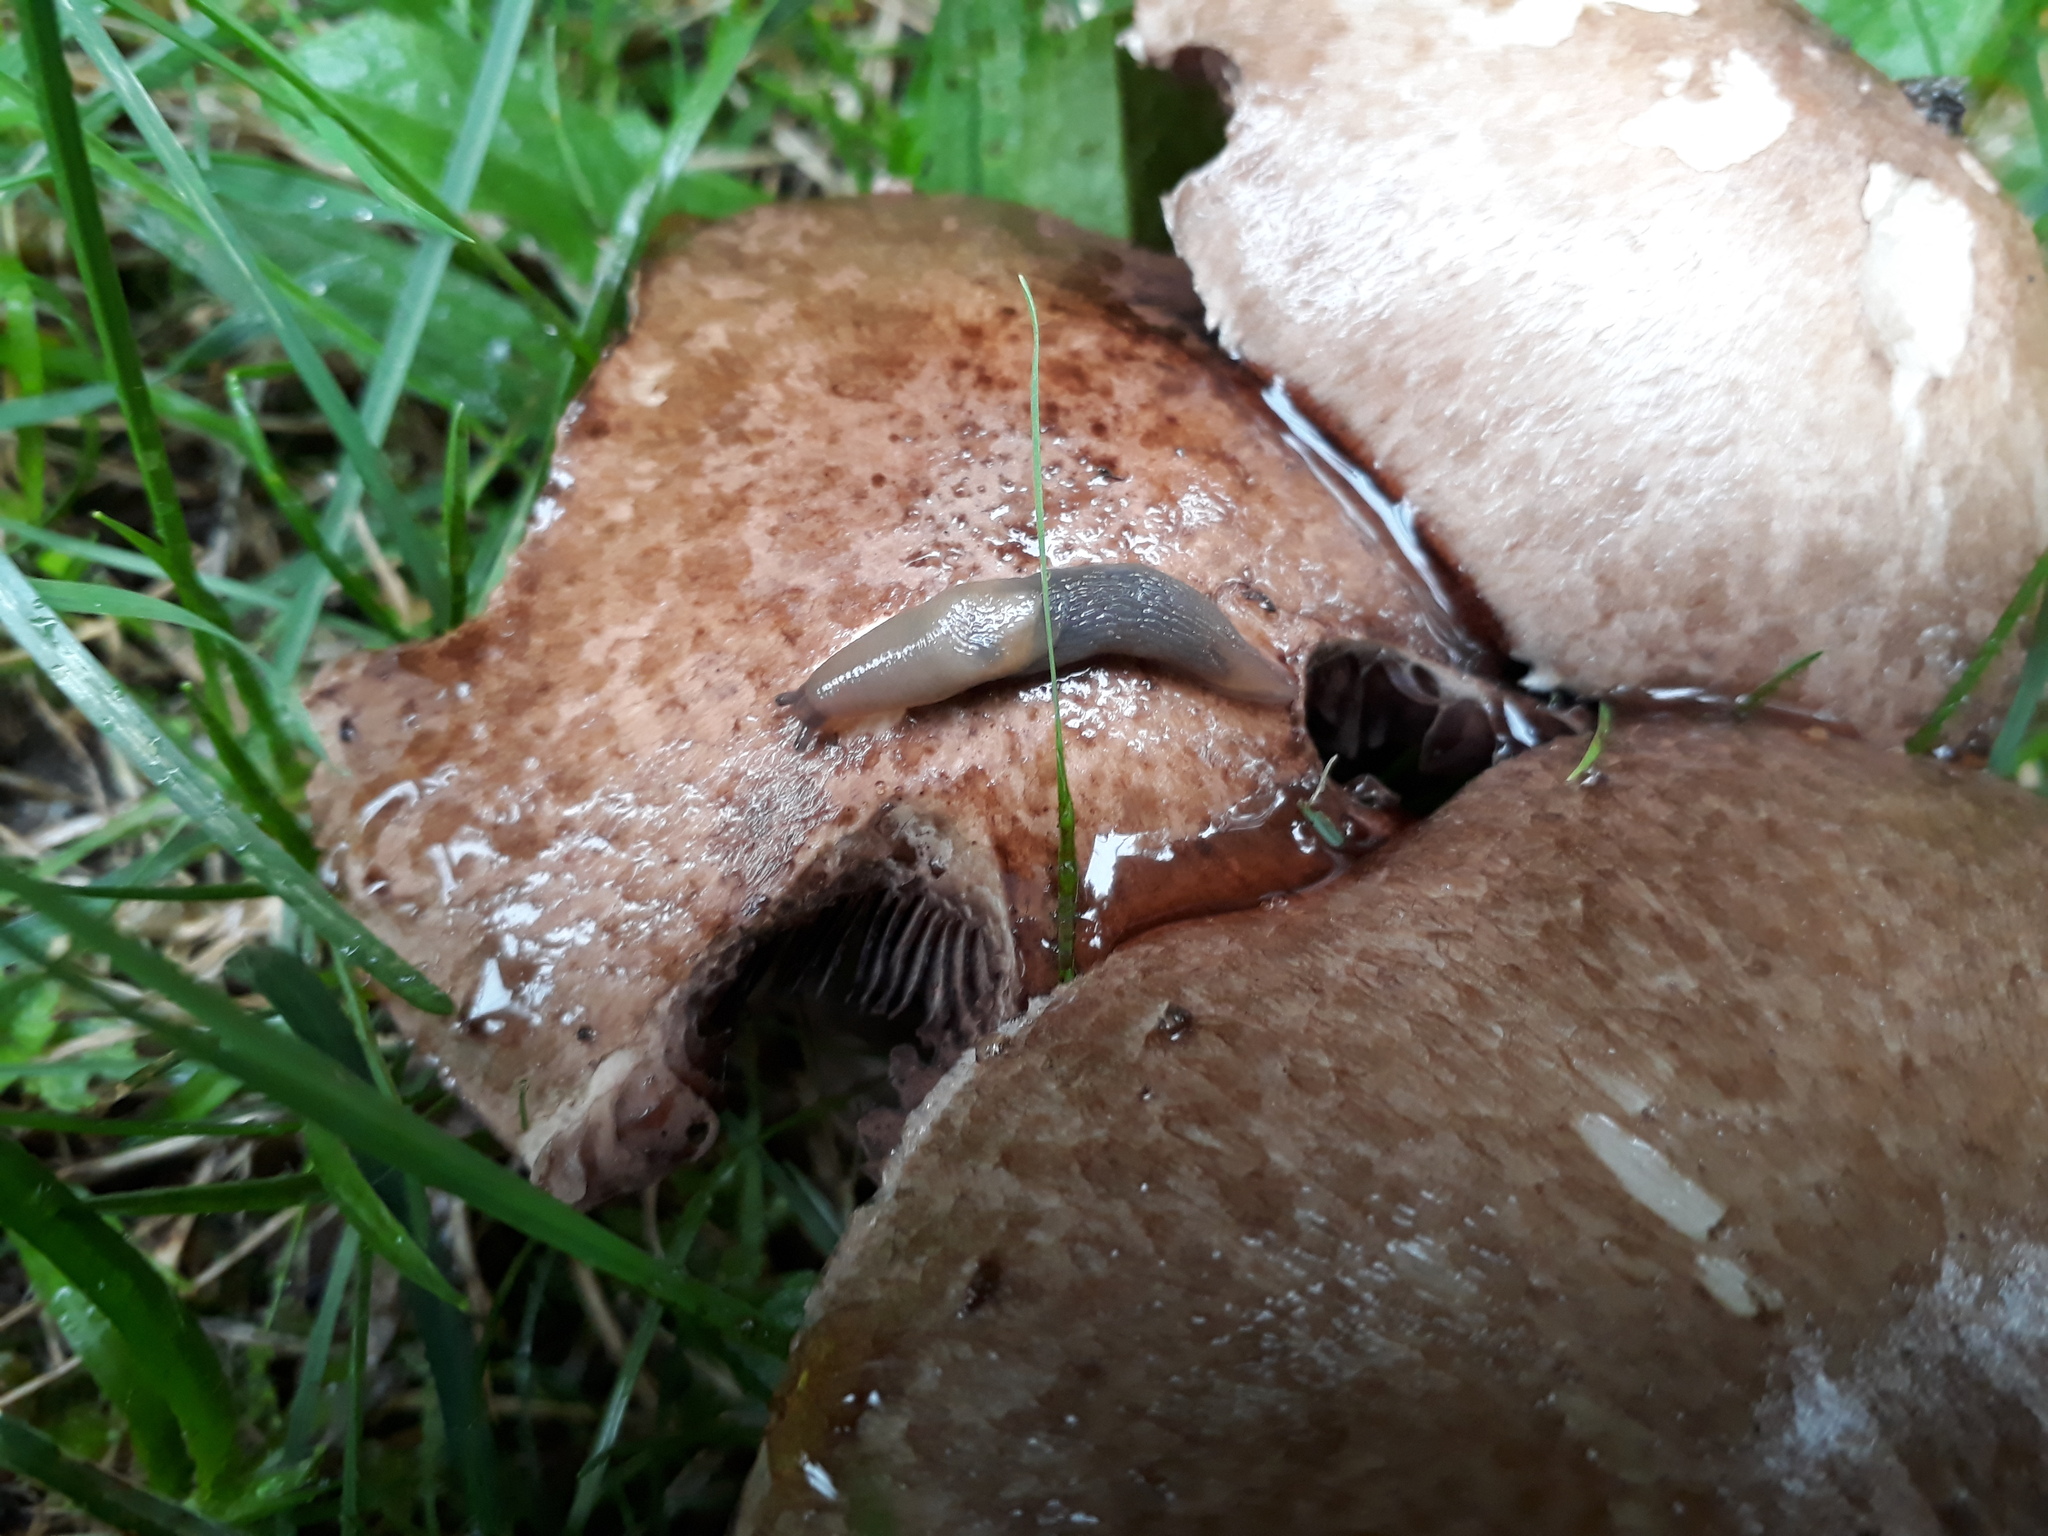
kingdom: Animalia
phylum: Mollusca
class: Gastropoda
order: Stylommatophora
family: Agriolimacidae
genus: Deroceras
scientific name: Deroceras invadens
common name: Caruana's slug
